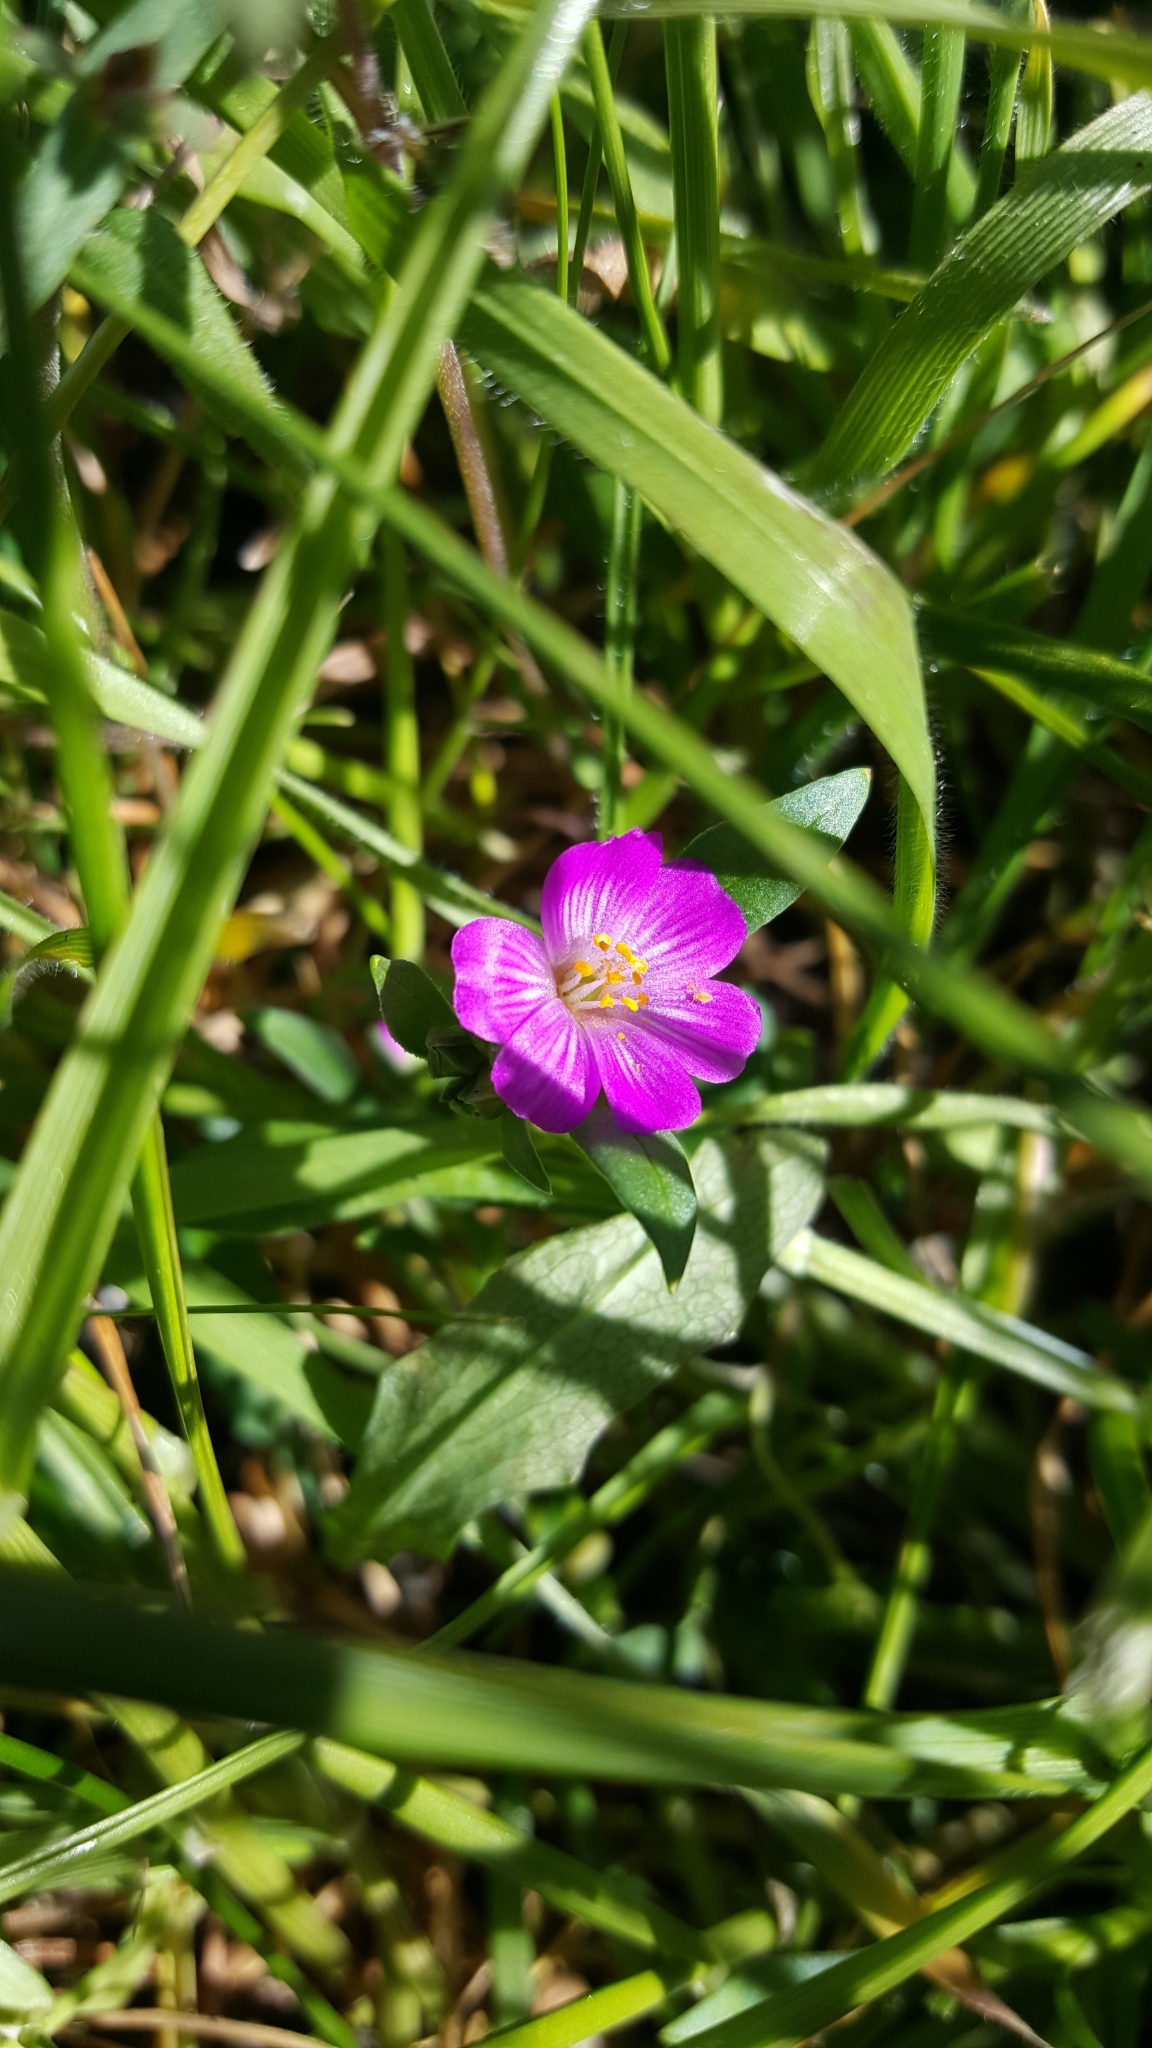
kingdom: Plantae
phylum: Tracheophyta
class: Magnoliopsida
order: Caryophyllales
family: Montiaceae
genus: Calandrinia
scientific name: Calandrinia menziesii
